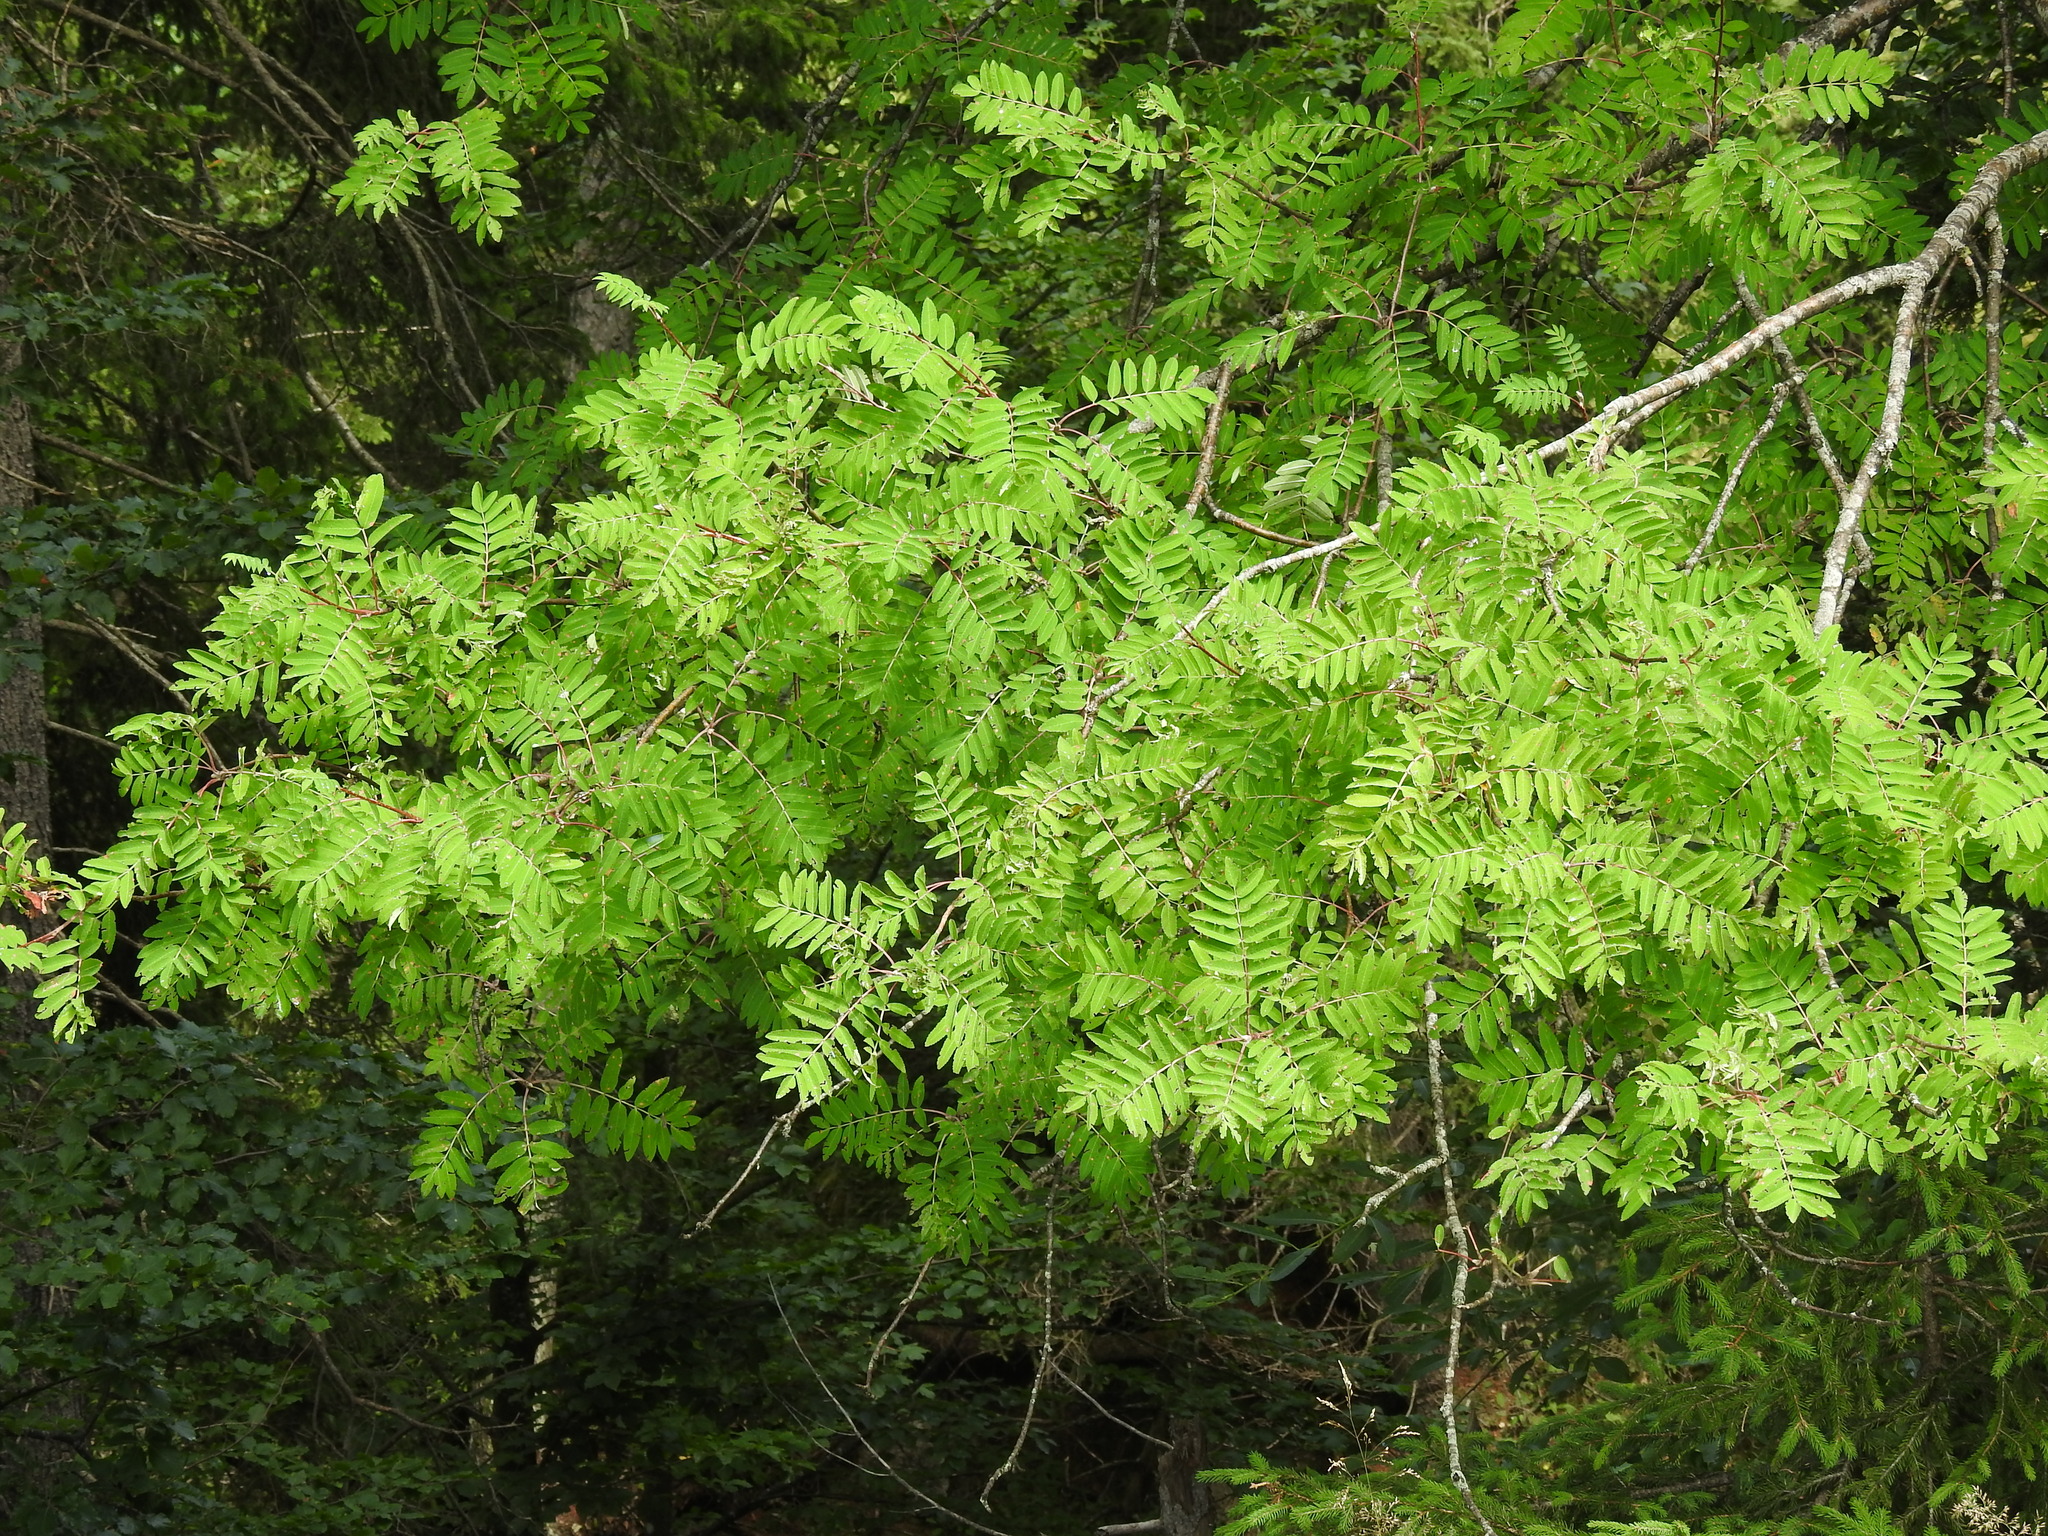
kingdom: Plantae
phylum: Tracheophyta
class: Magnoliopsida
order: Rosales
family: Rosaceae
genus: Sorbus
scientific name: Sorbus aucuparia
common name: Rowan
